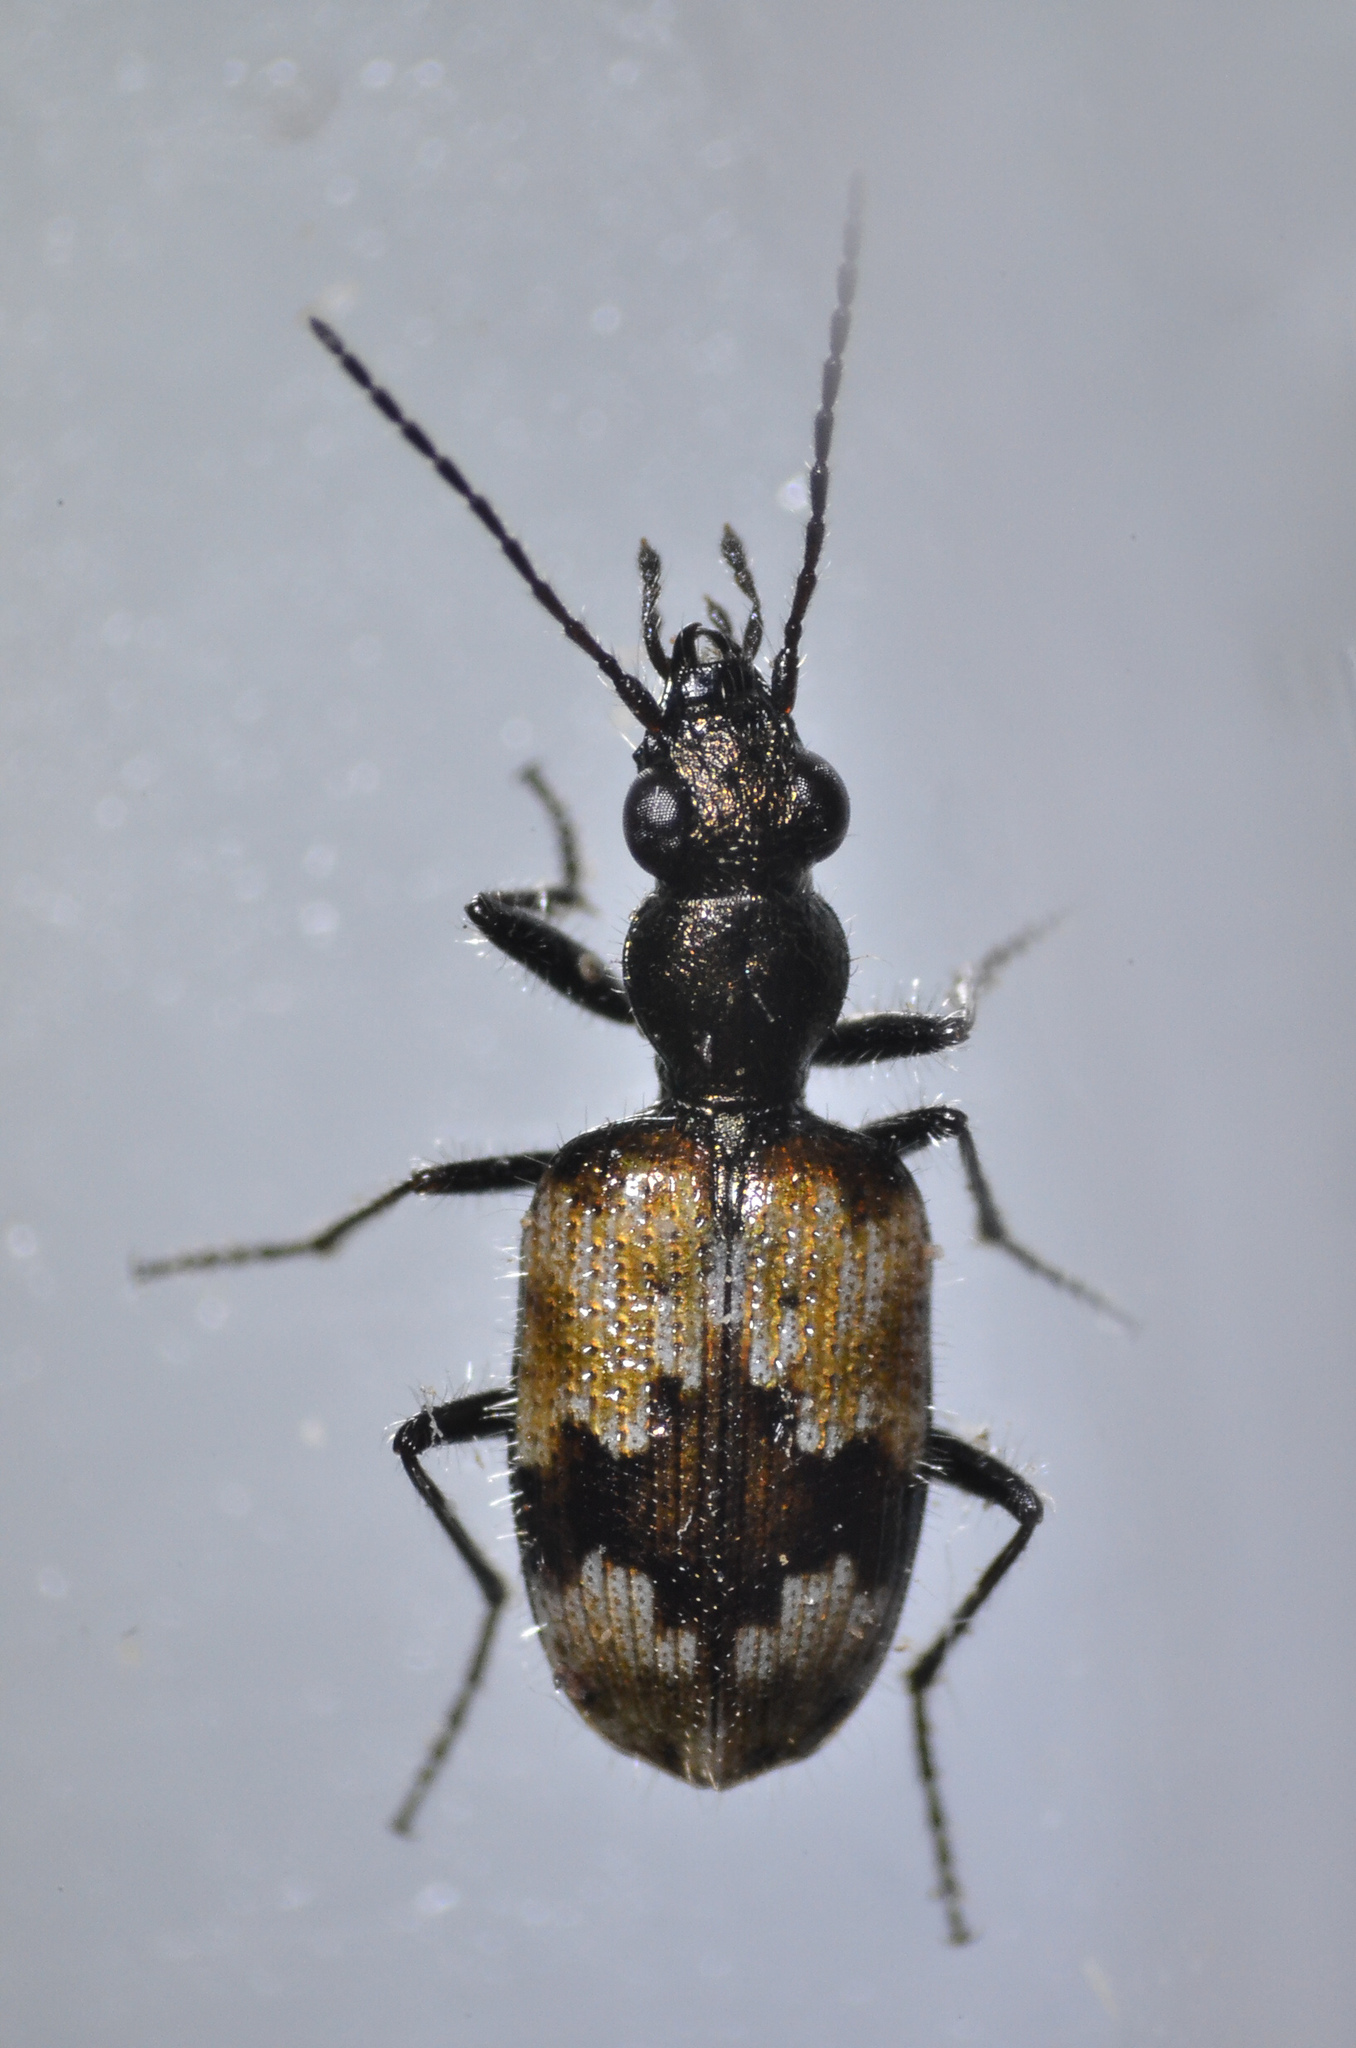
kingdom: Animalia
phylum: Arthropoda
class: Insecta
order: Coleoptera
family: Carabidae
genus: Lachnophorus
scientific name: Lachnophorus elegantulus
